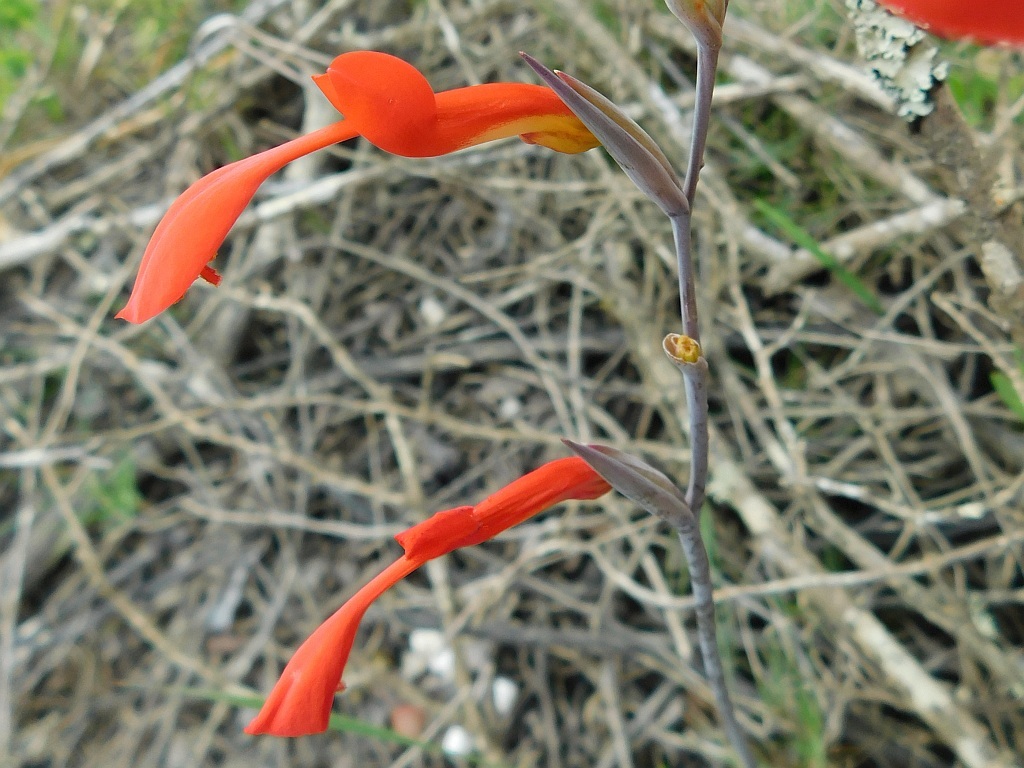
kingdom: Plantae
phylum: Tracheophyta
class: Liliopsida
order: Asparagales
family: Iridaceae
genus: Gladiolus
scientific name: Gladiolus cunonius
